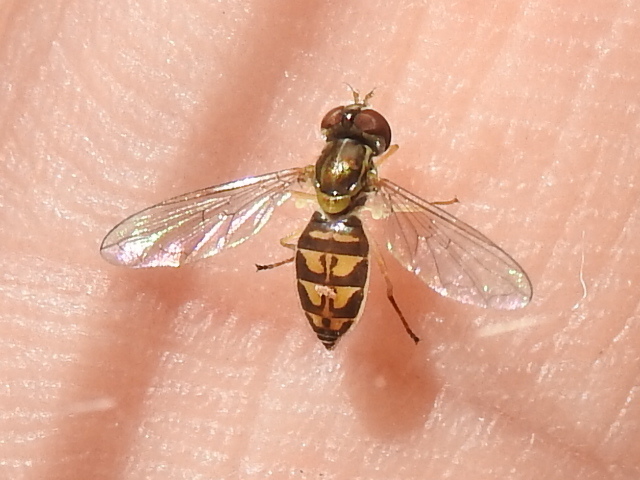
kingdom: Animalia
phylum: Arthropoda
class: Insecta
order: Diptera
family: Syrphidae
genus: Toxomerus
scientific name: Toxomerus marginatus
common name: Syrphid fly
